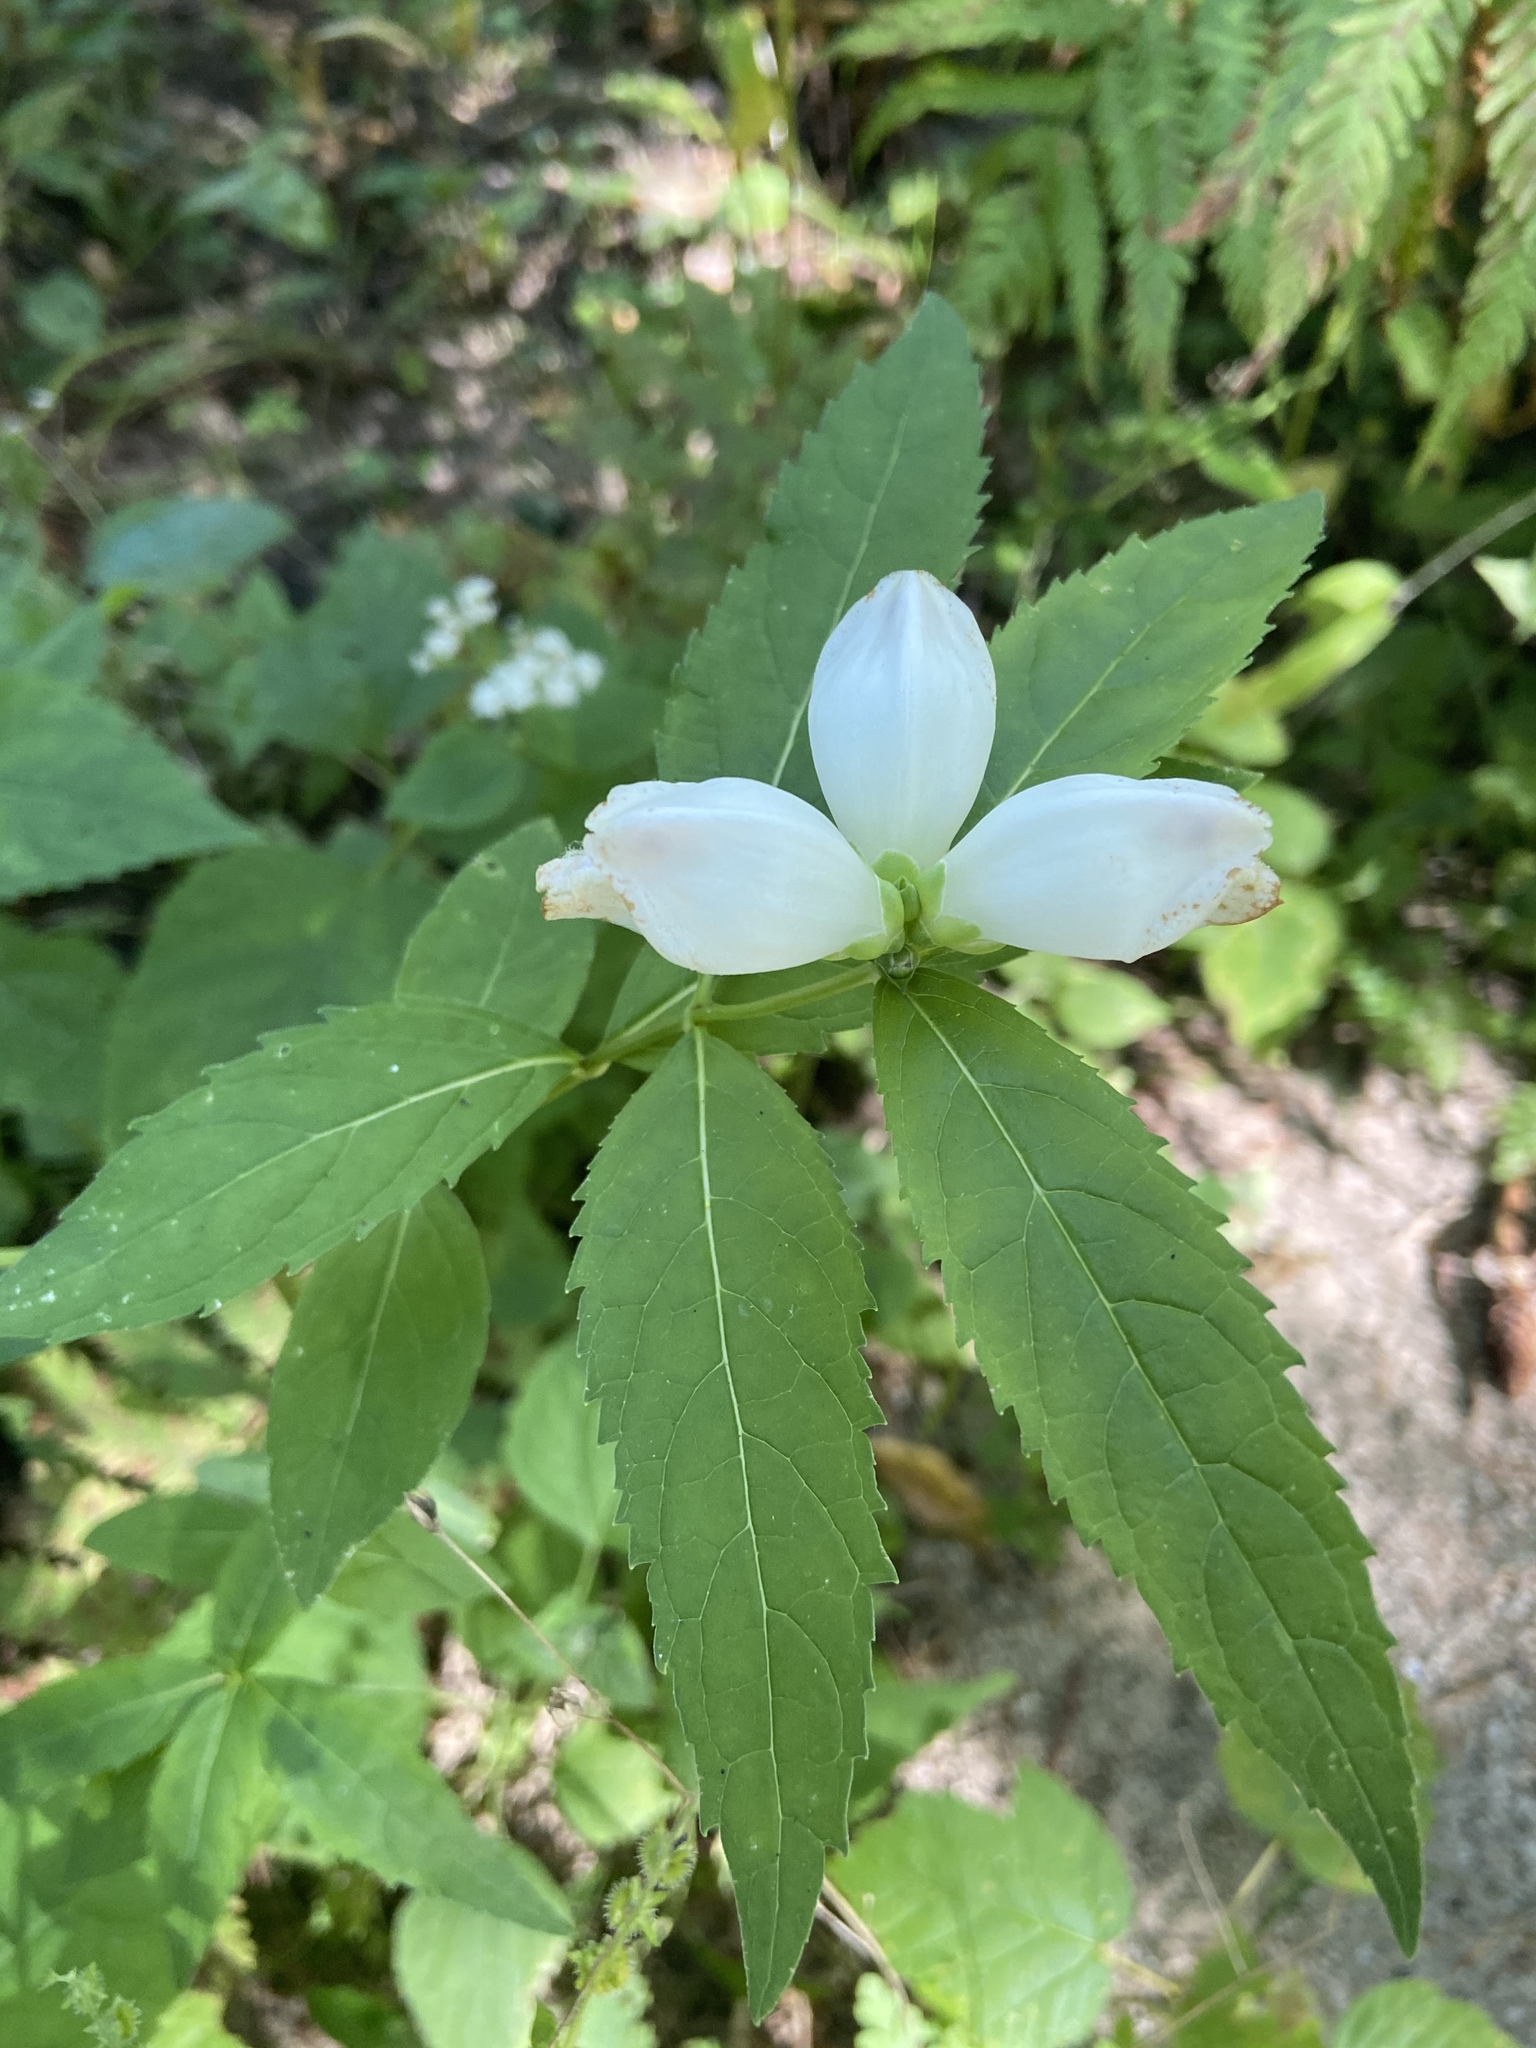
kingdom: Plantae
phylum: Tracheophyta
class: Magnoliopsida
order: Lamiales
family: Plantaginaceae
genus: Chelone
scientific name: Chelone glabra
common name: Snakehead
